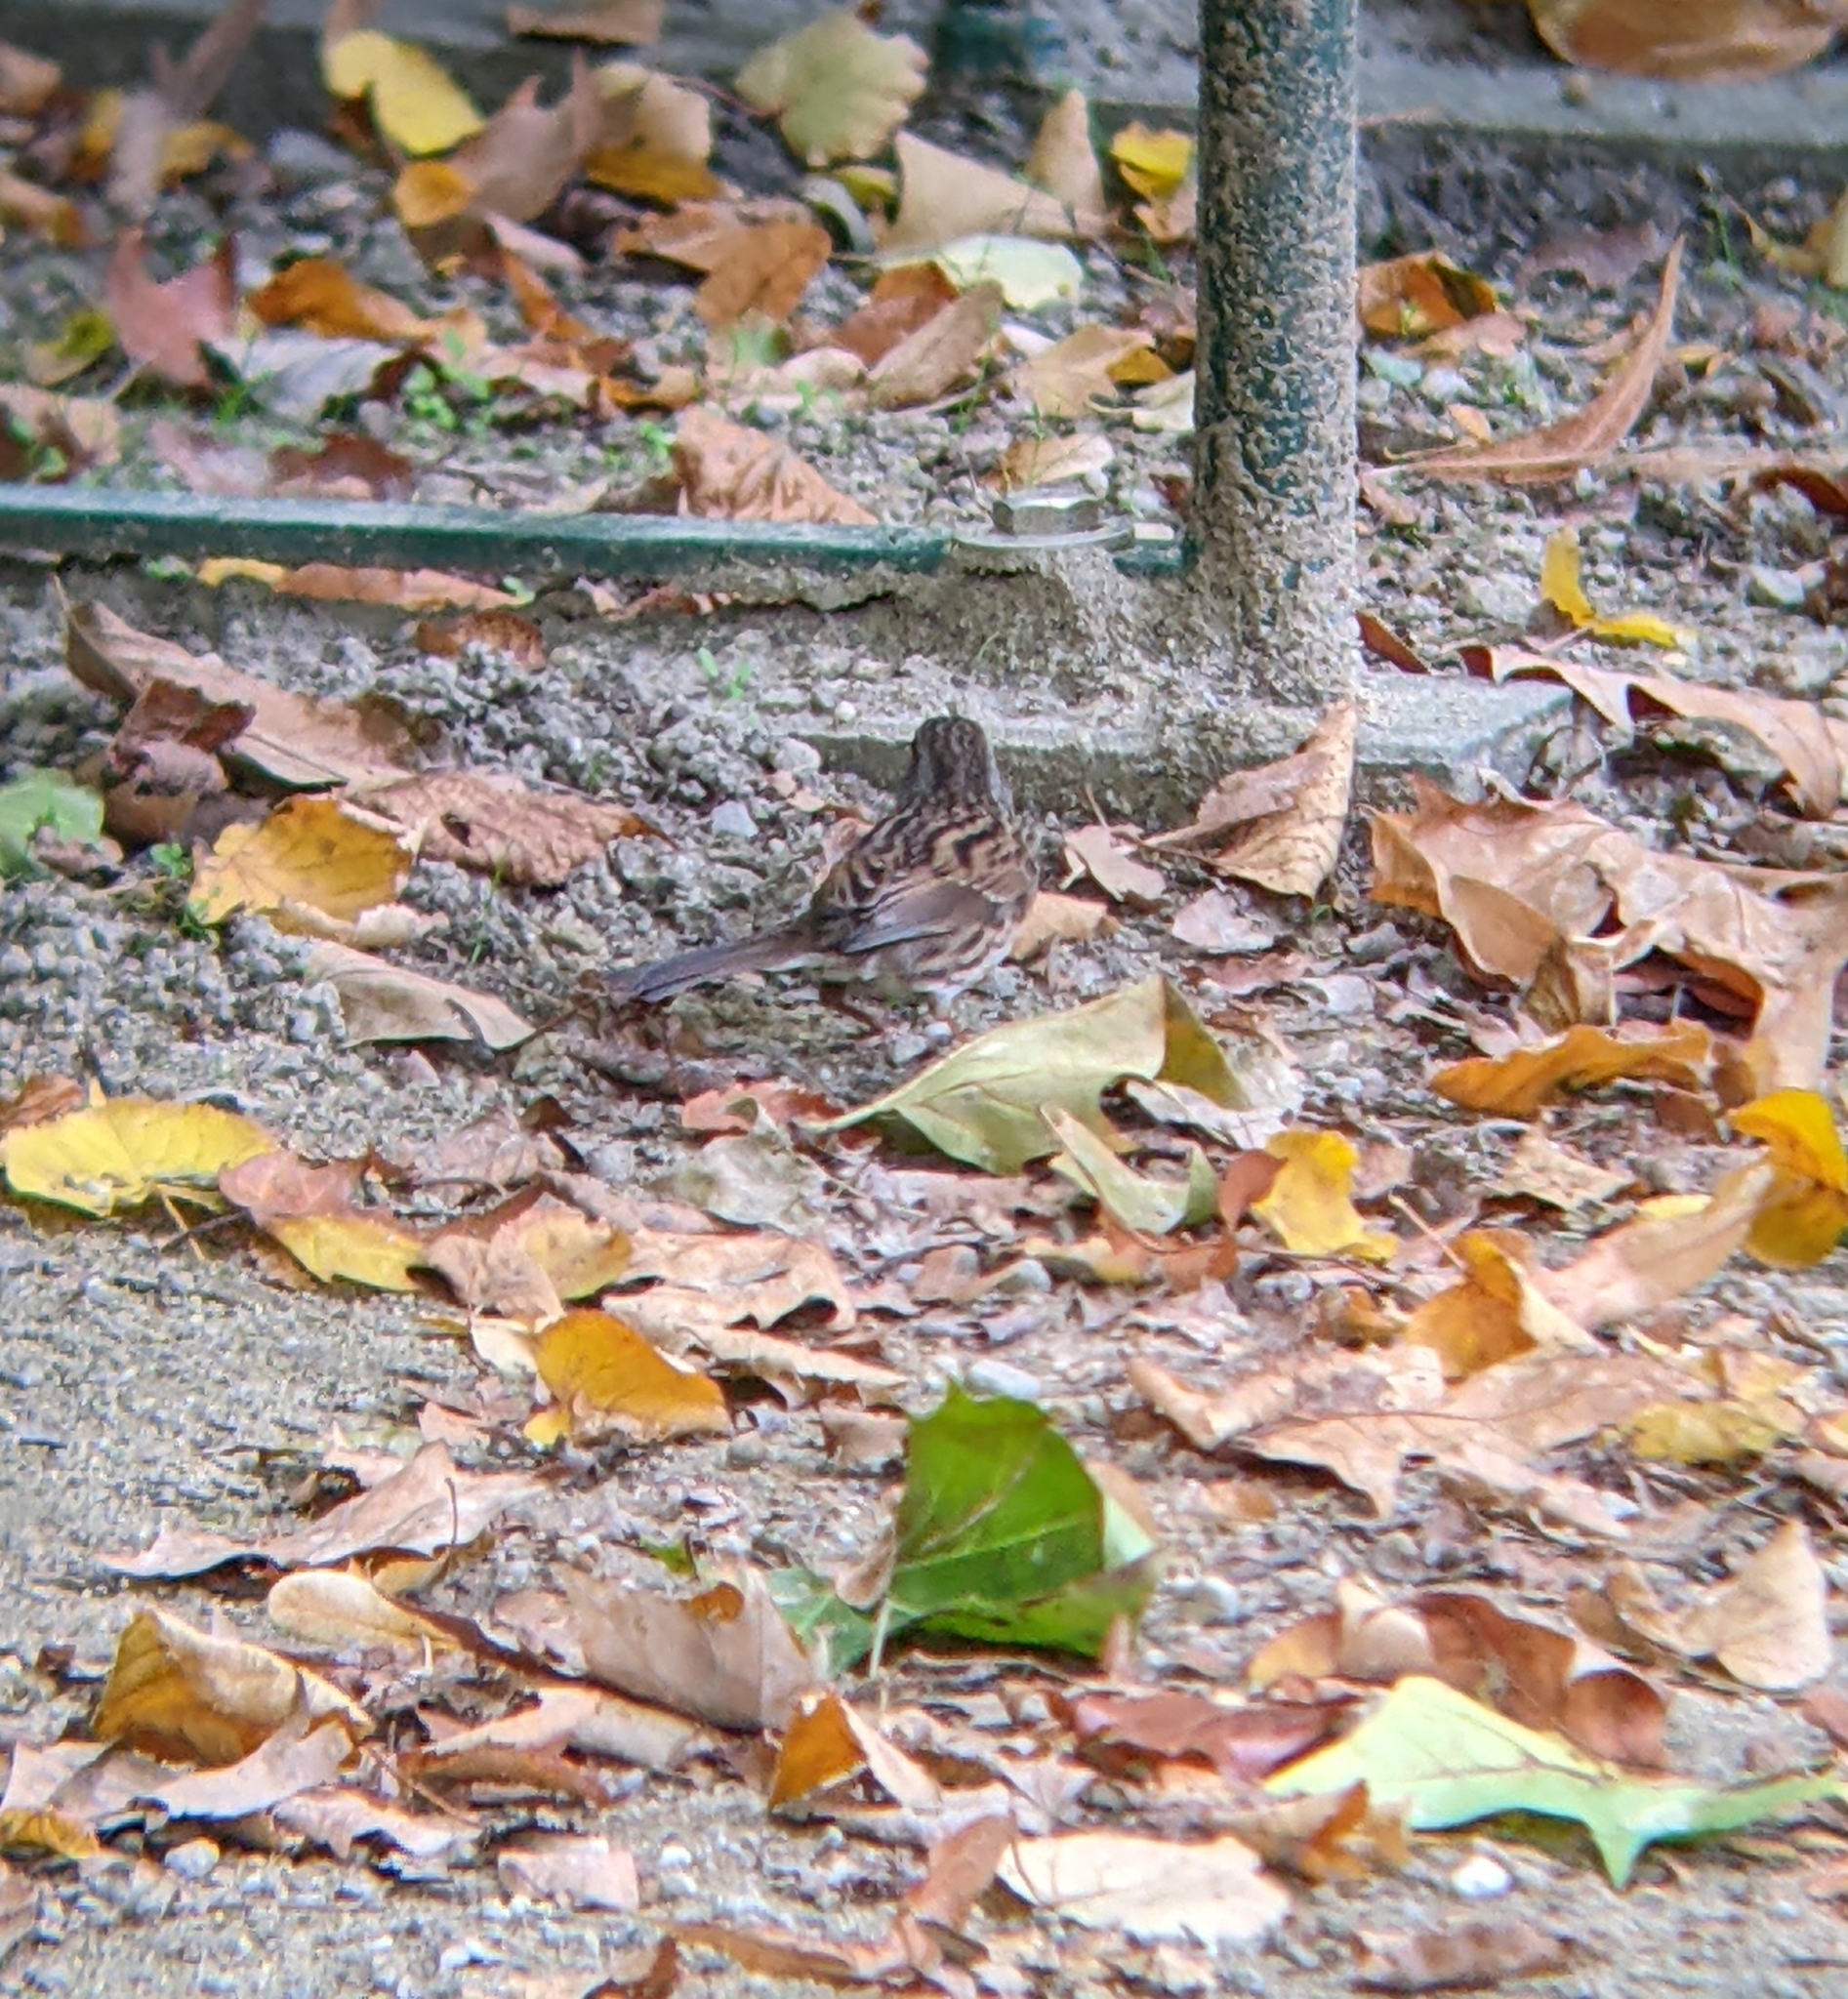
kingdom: Animalia
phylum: Chordata
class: Aves
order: Passeriformes
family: Prunellidae
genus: Prunella
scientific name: Prunella modularis
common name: Dunnock
